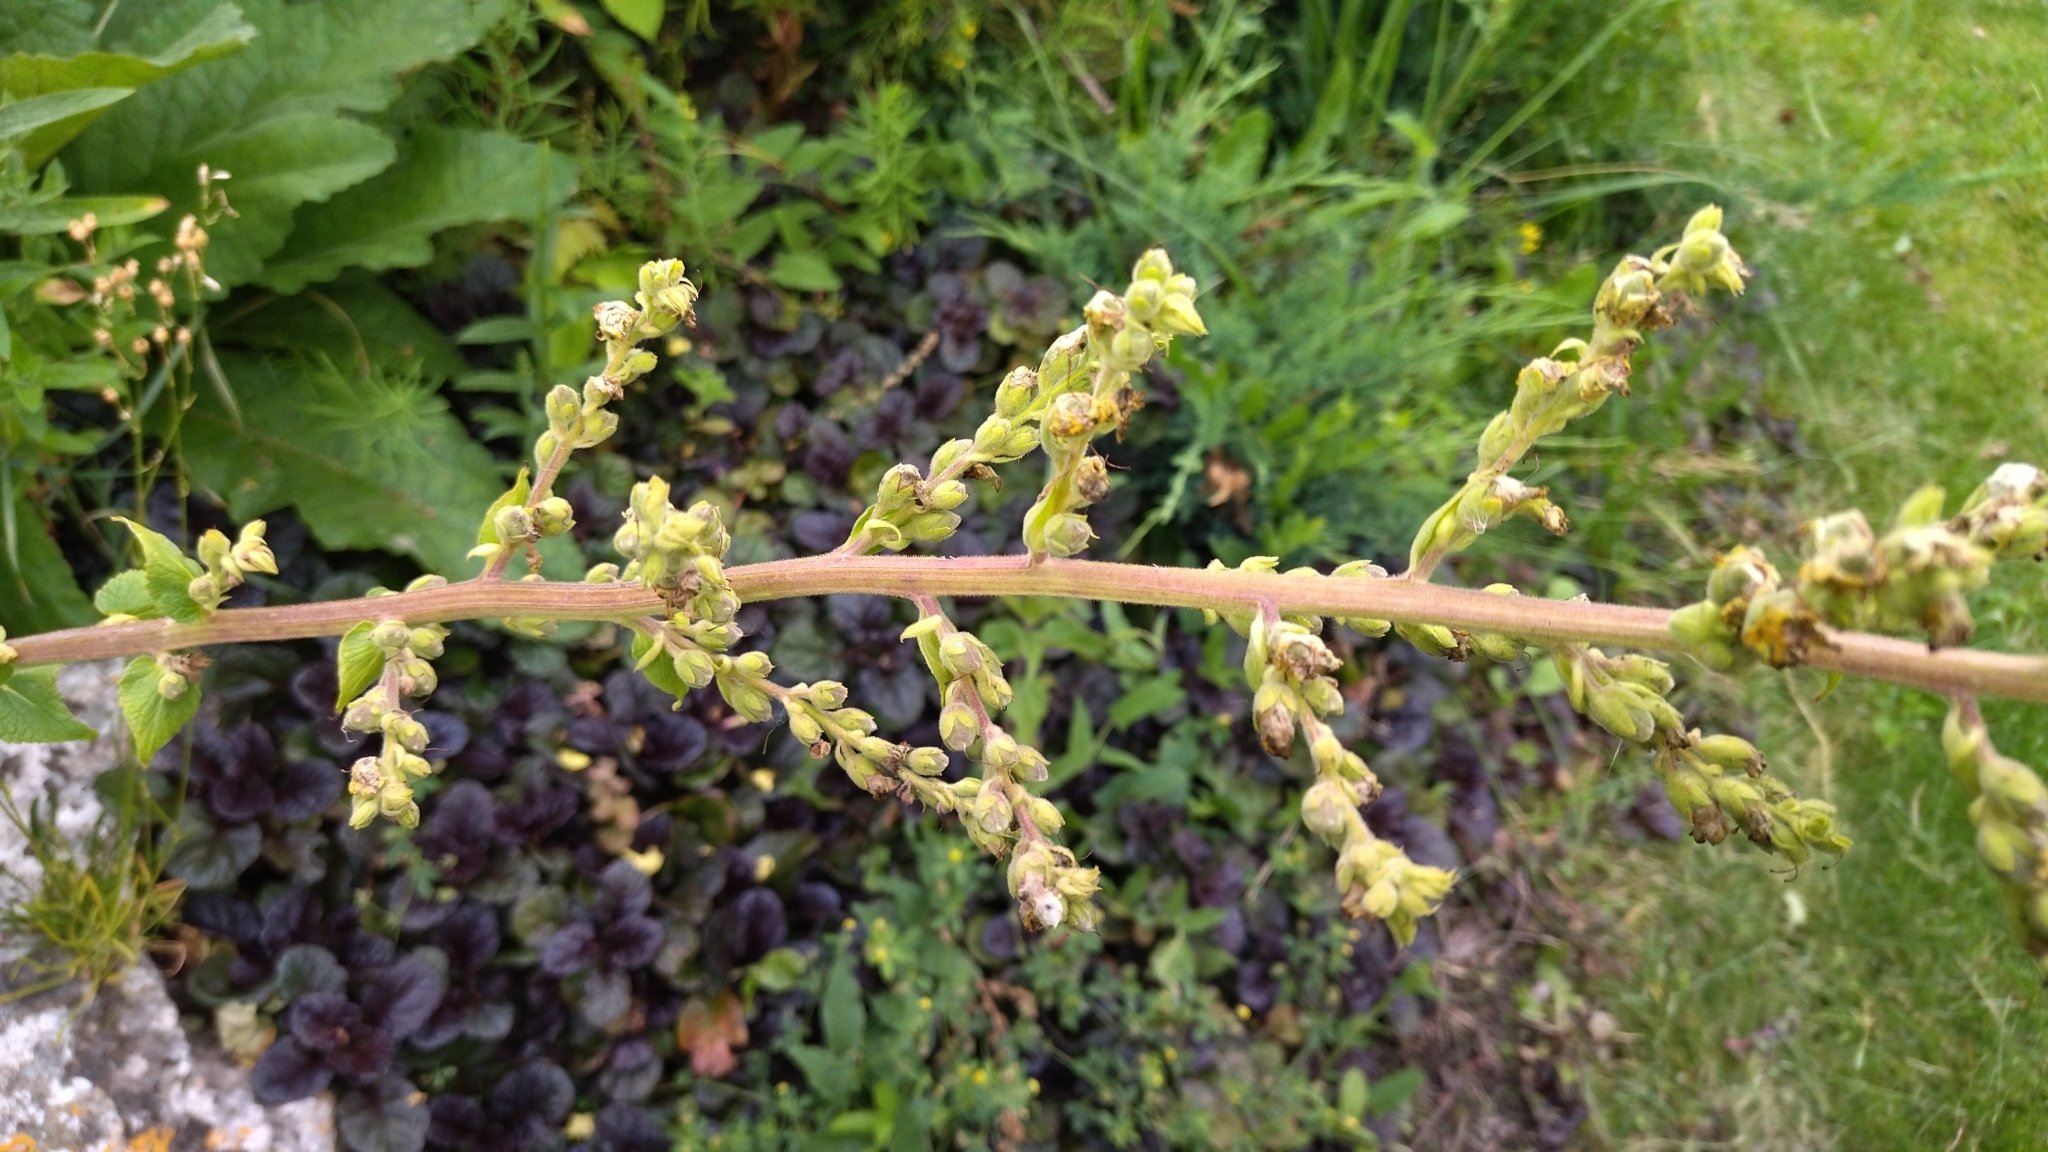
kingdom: Plantae
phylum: Tracheophyta
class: Magnoliopsida
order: Lamiales
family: Scrophulariaceae
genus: Verbascum
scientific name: Verbascum pyramidatum
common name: Caucasian mullein
